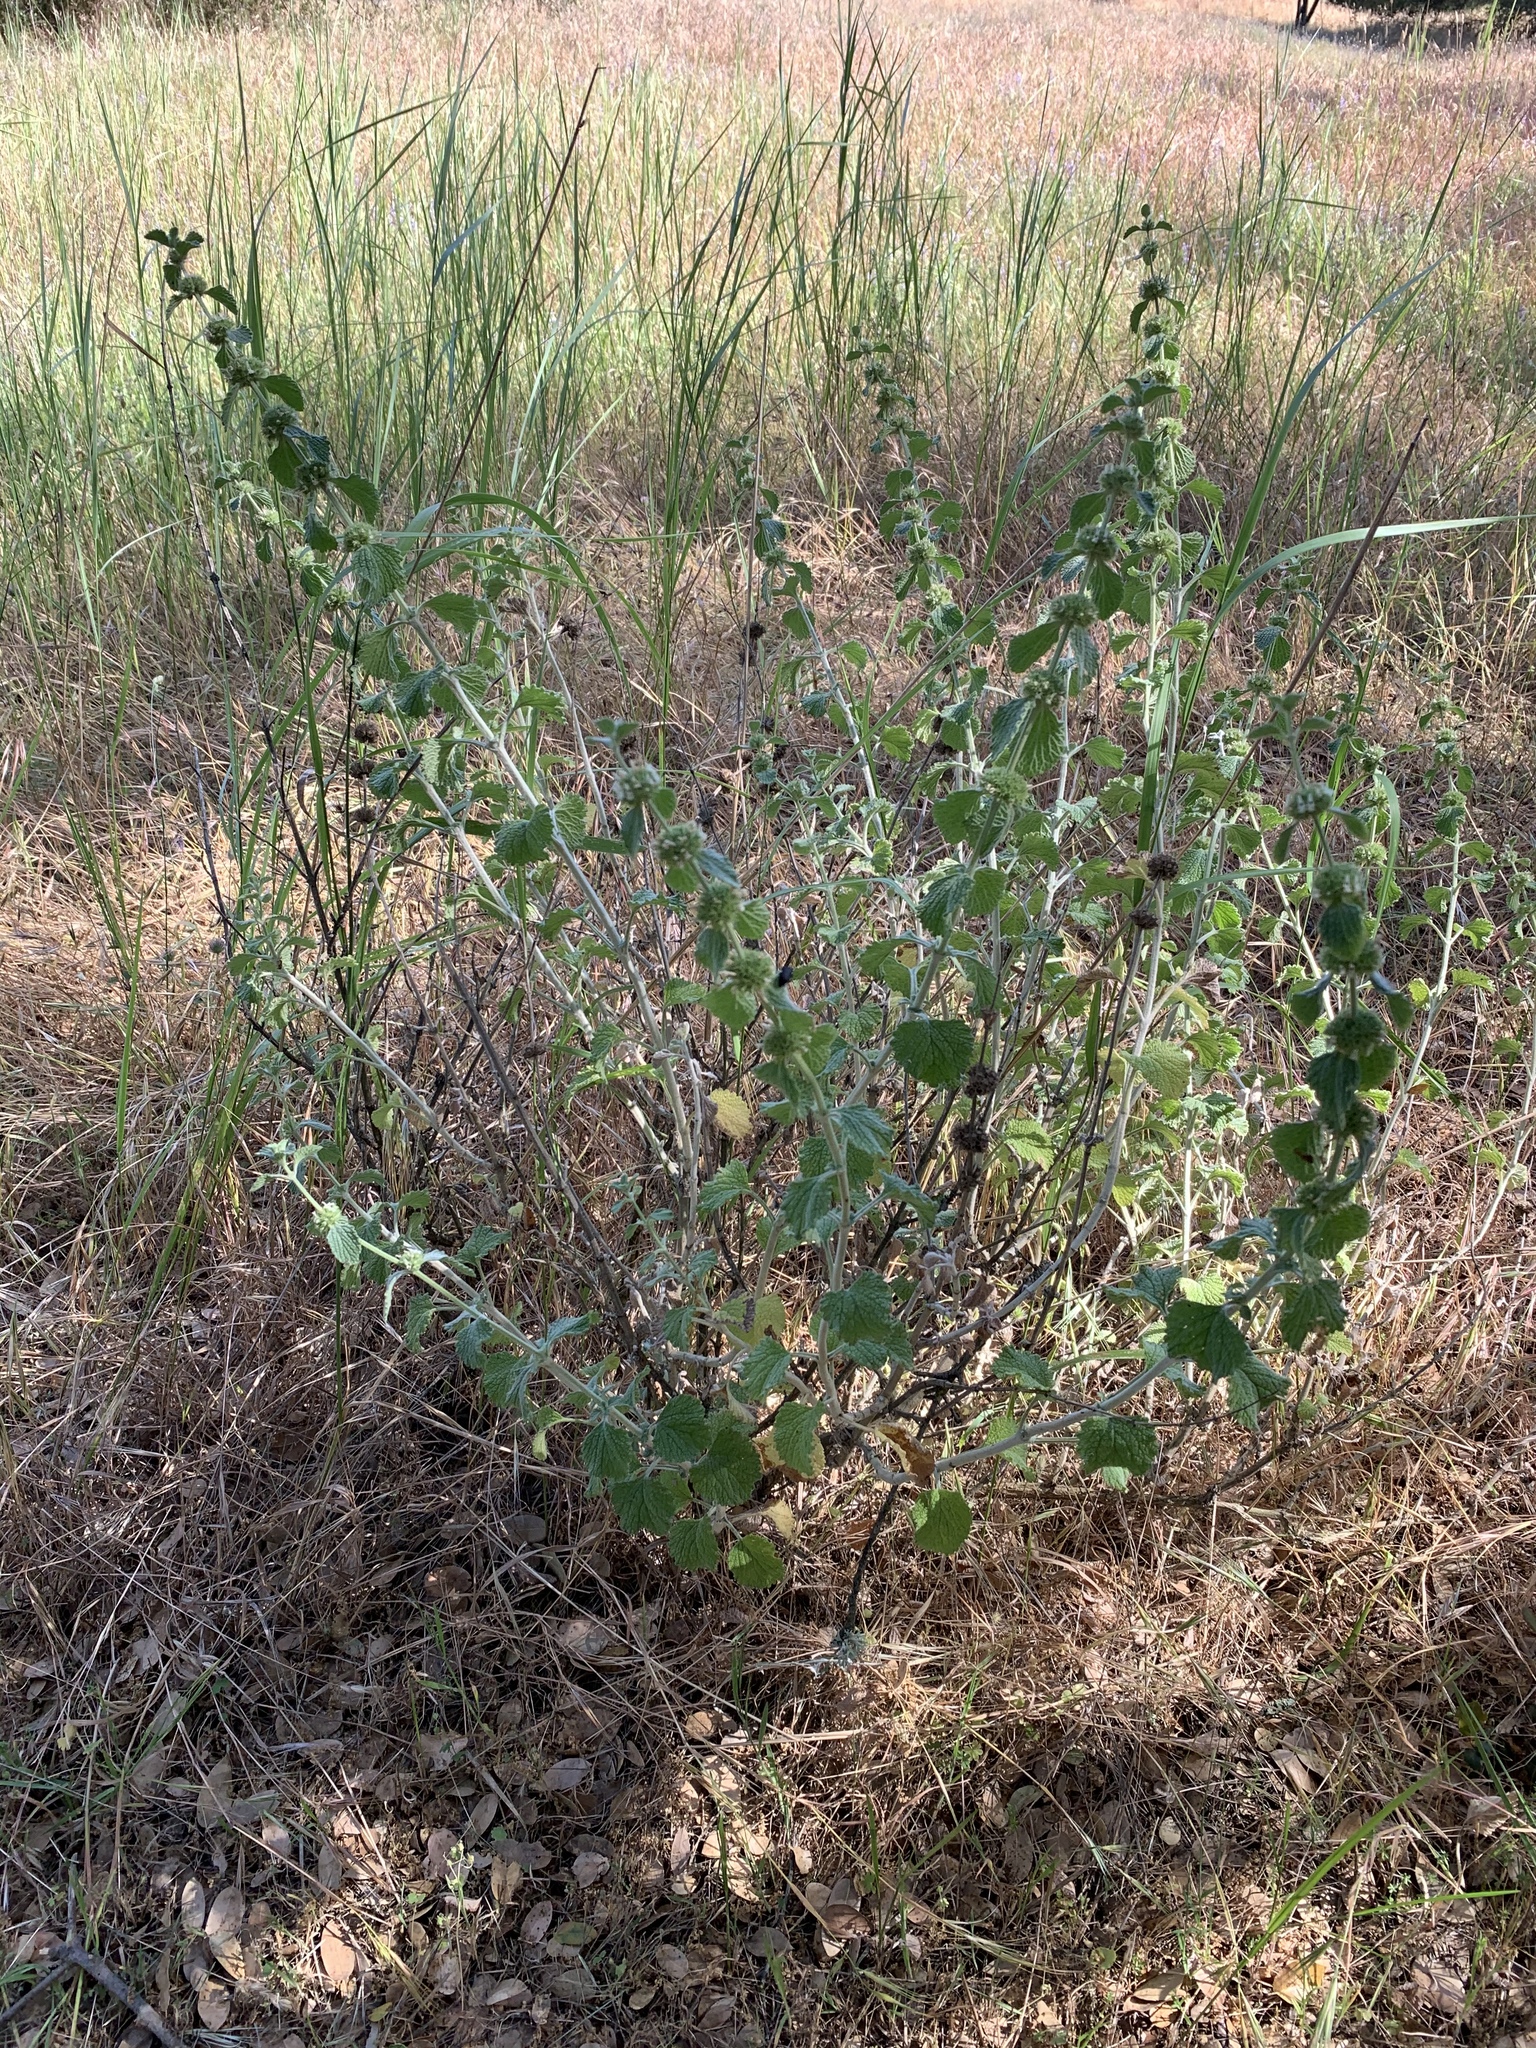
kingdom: Plantae
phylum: Tracheophyta
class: Magnoliopsida
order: Lamiales
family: Lamiaceae
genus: Marrubium
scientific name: Marrubium vulgare
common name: Horehound
